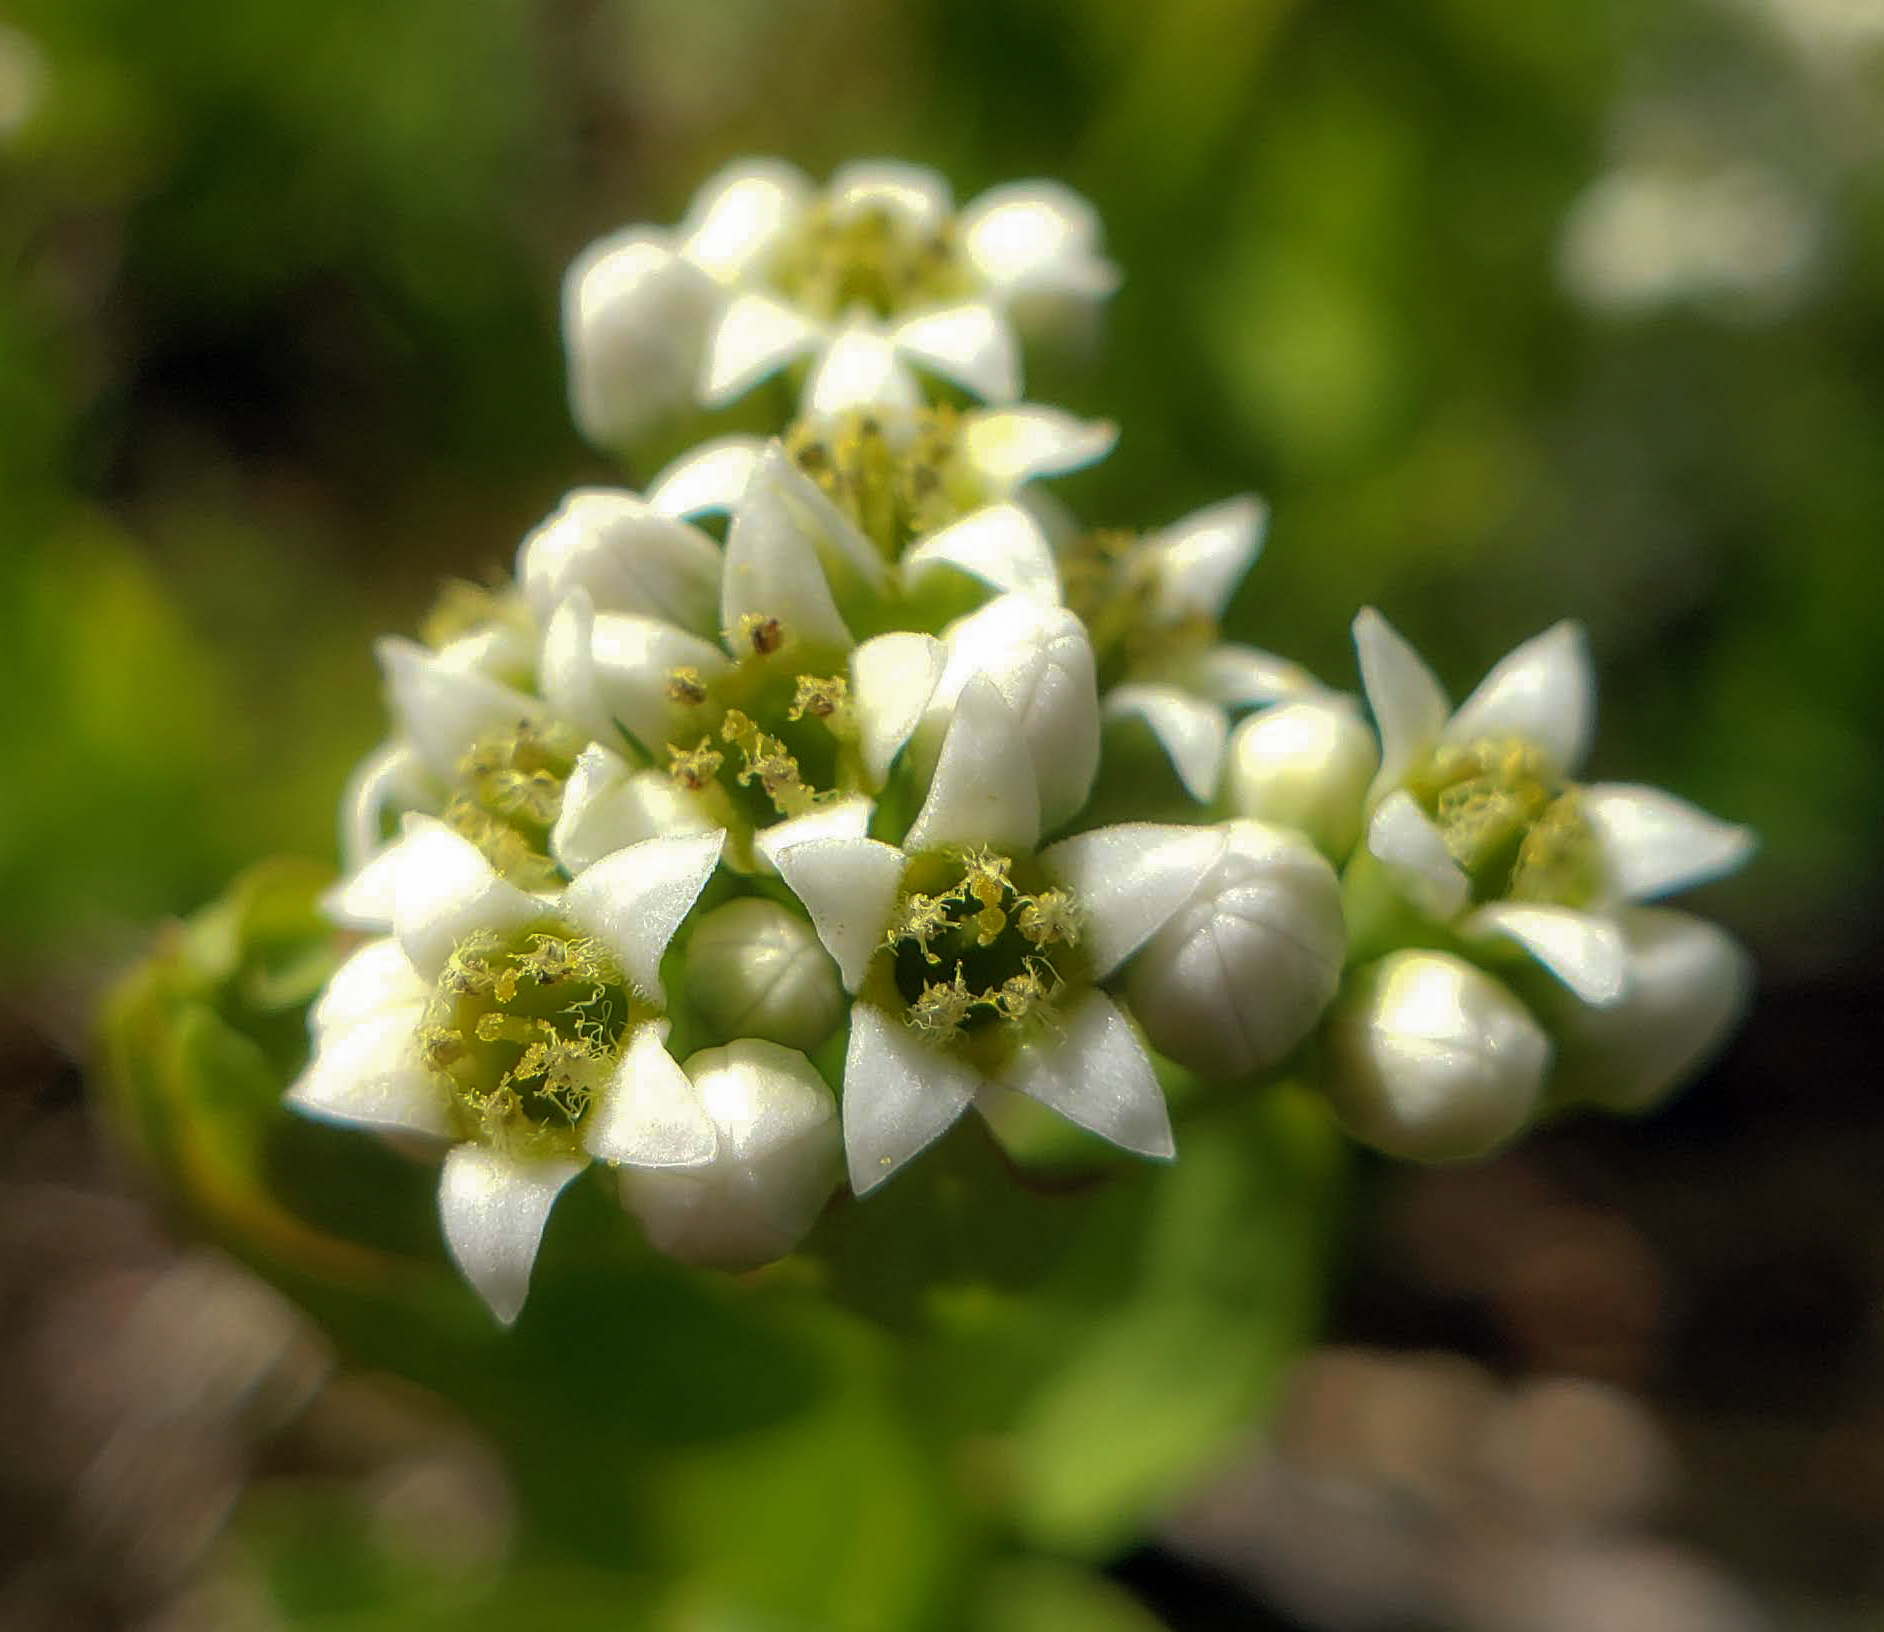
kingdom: Plantae
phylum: Tracheophyta
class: Magnoliopsida
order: Santalales
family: Comandraceae
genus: Comandra
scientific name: Comandra umbellata
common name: Bastard toadflax
